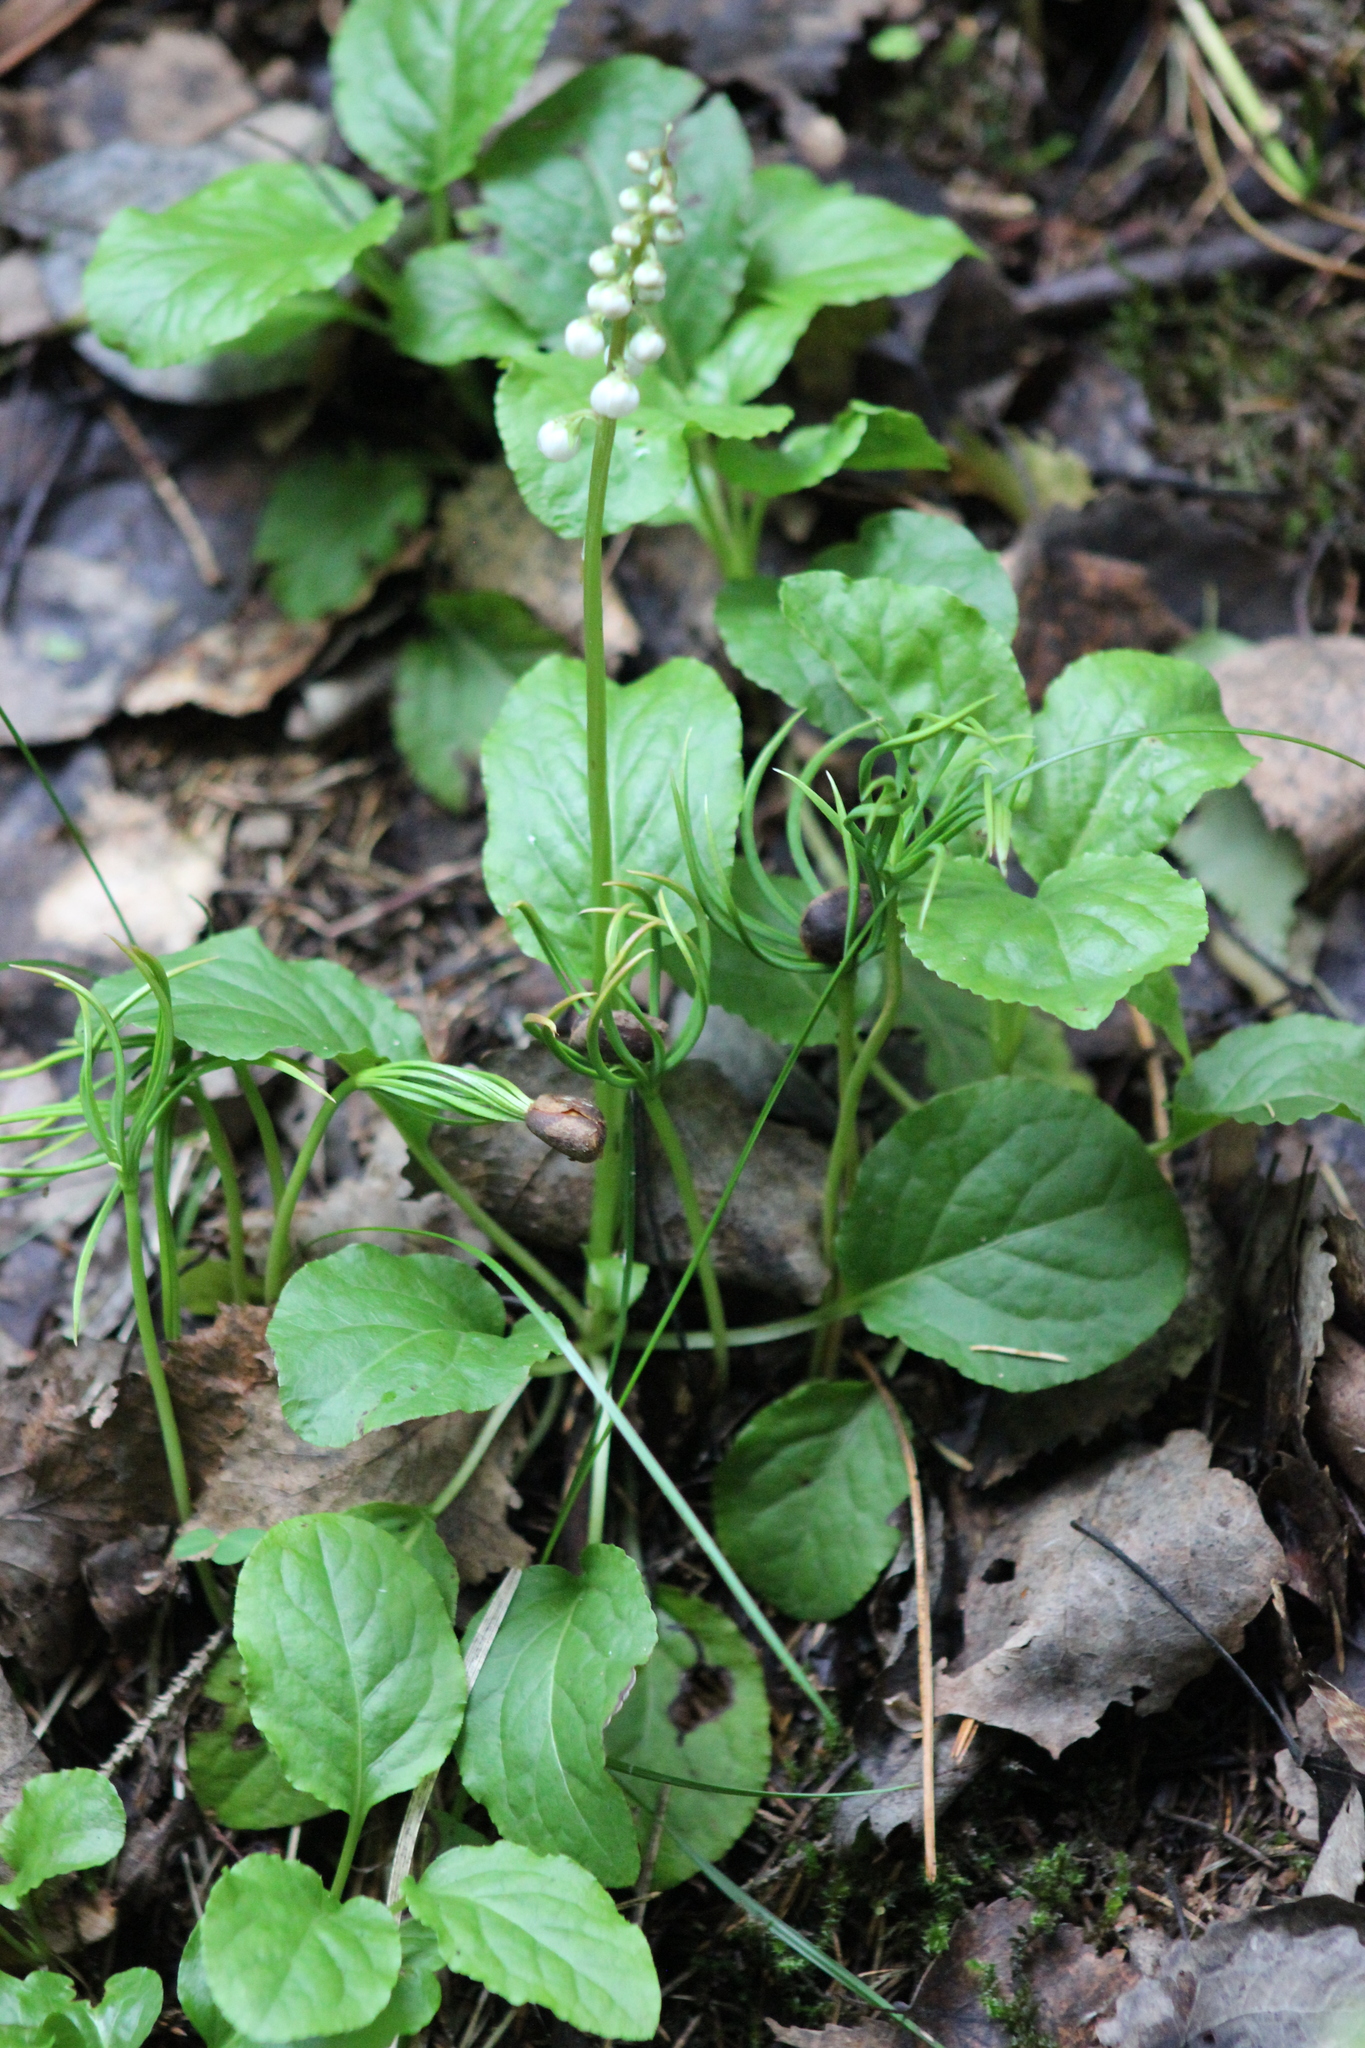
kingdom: Plantae
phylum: Tracheophyta
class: Magnoliopsida
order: Ericales
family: Ericaceae
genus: Pyrola
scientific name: Pyrola minor
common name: Common wintergreen
